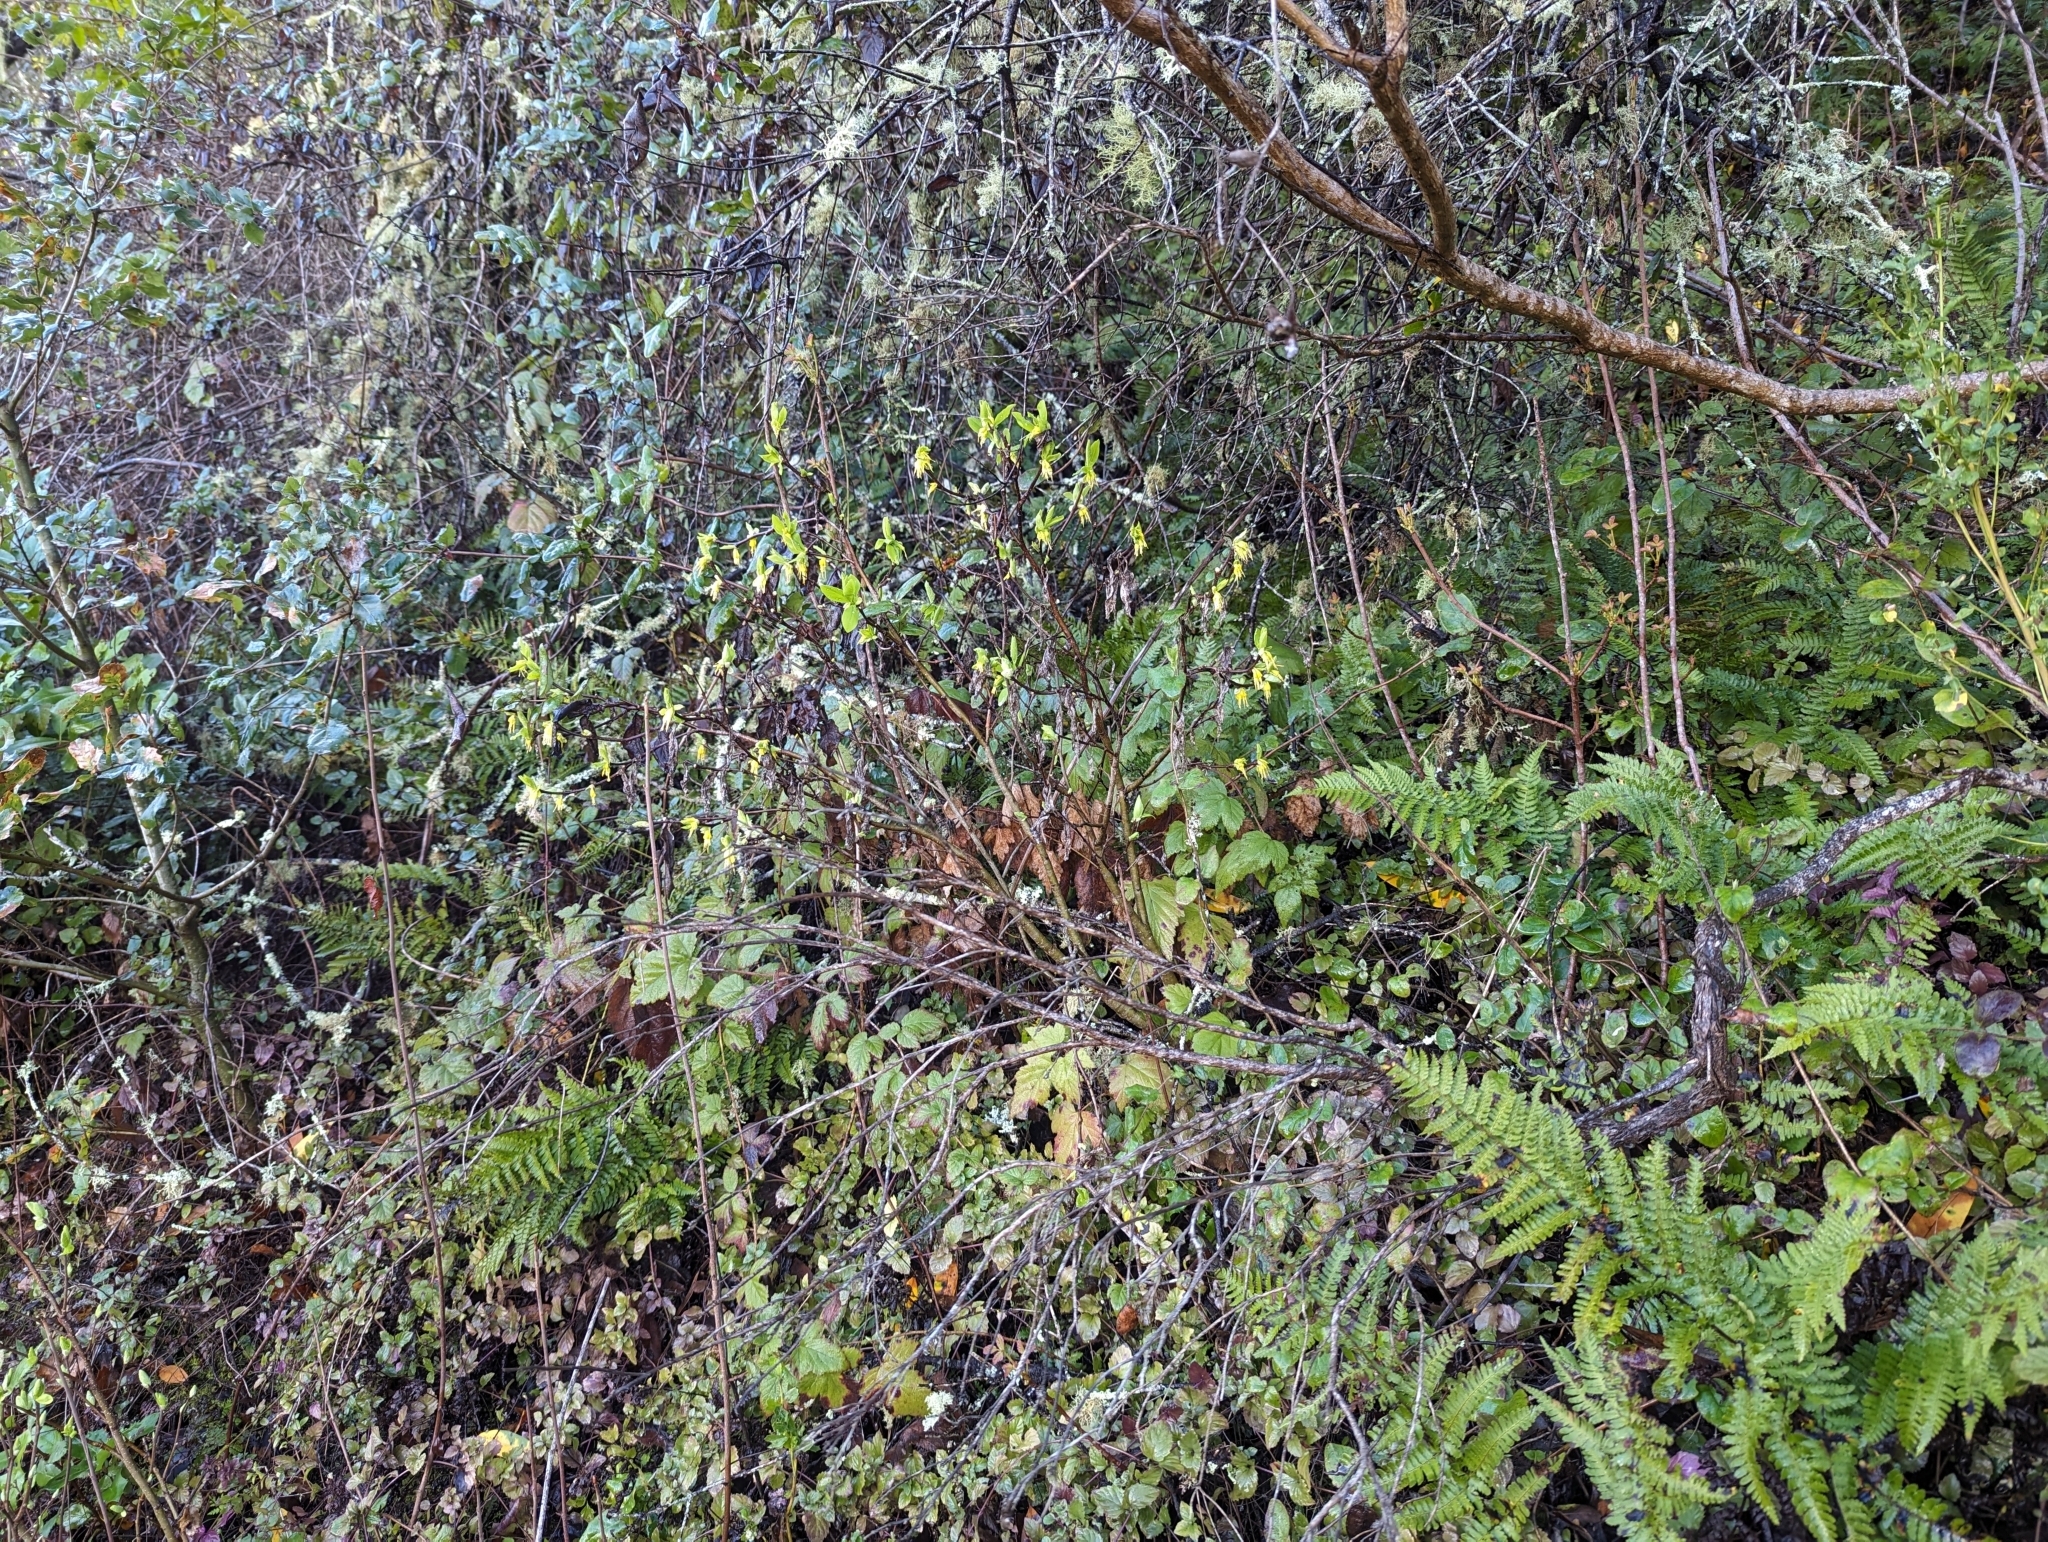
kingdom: Plantae
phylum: Tracheophyta
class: Magnoliopsida
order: Malvales
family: Thymelaeaceae
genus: Dirca
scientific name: Dirca occidentalis
